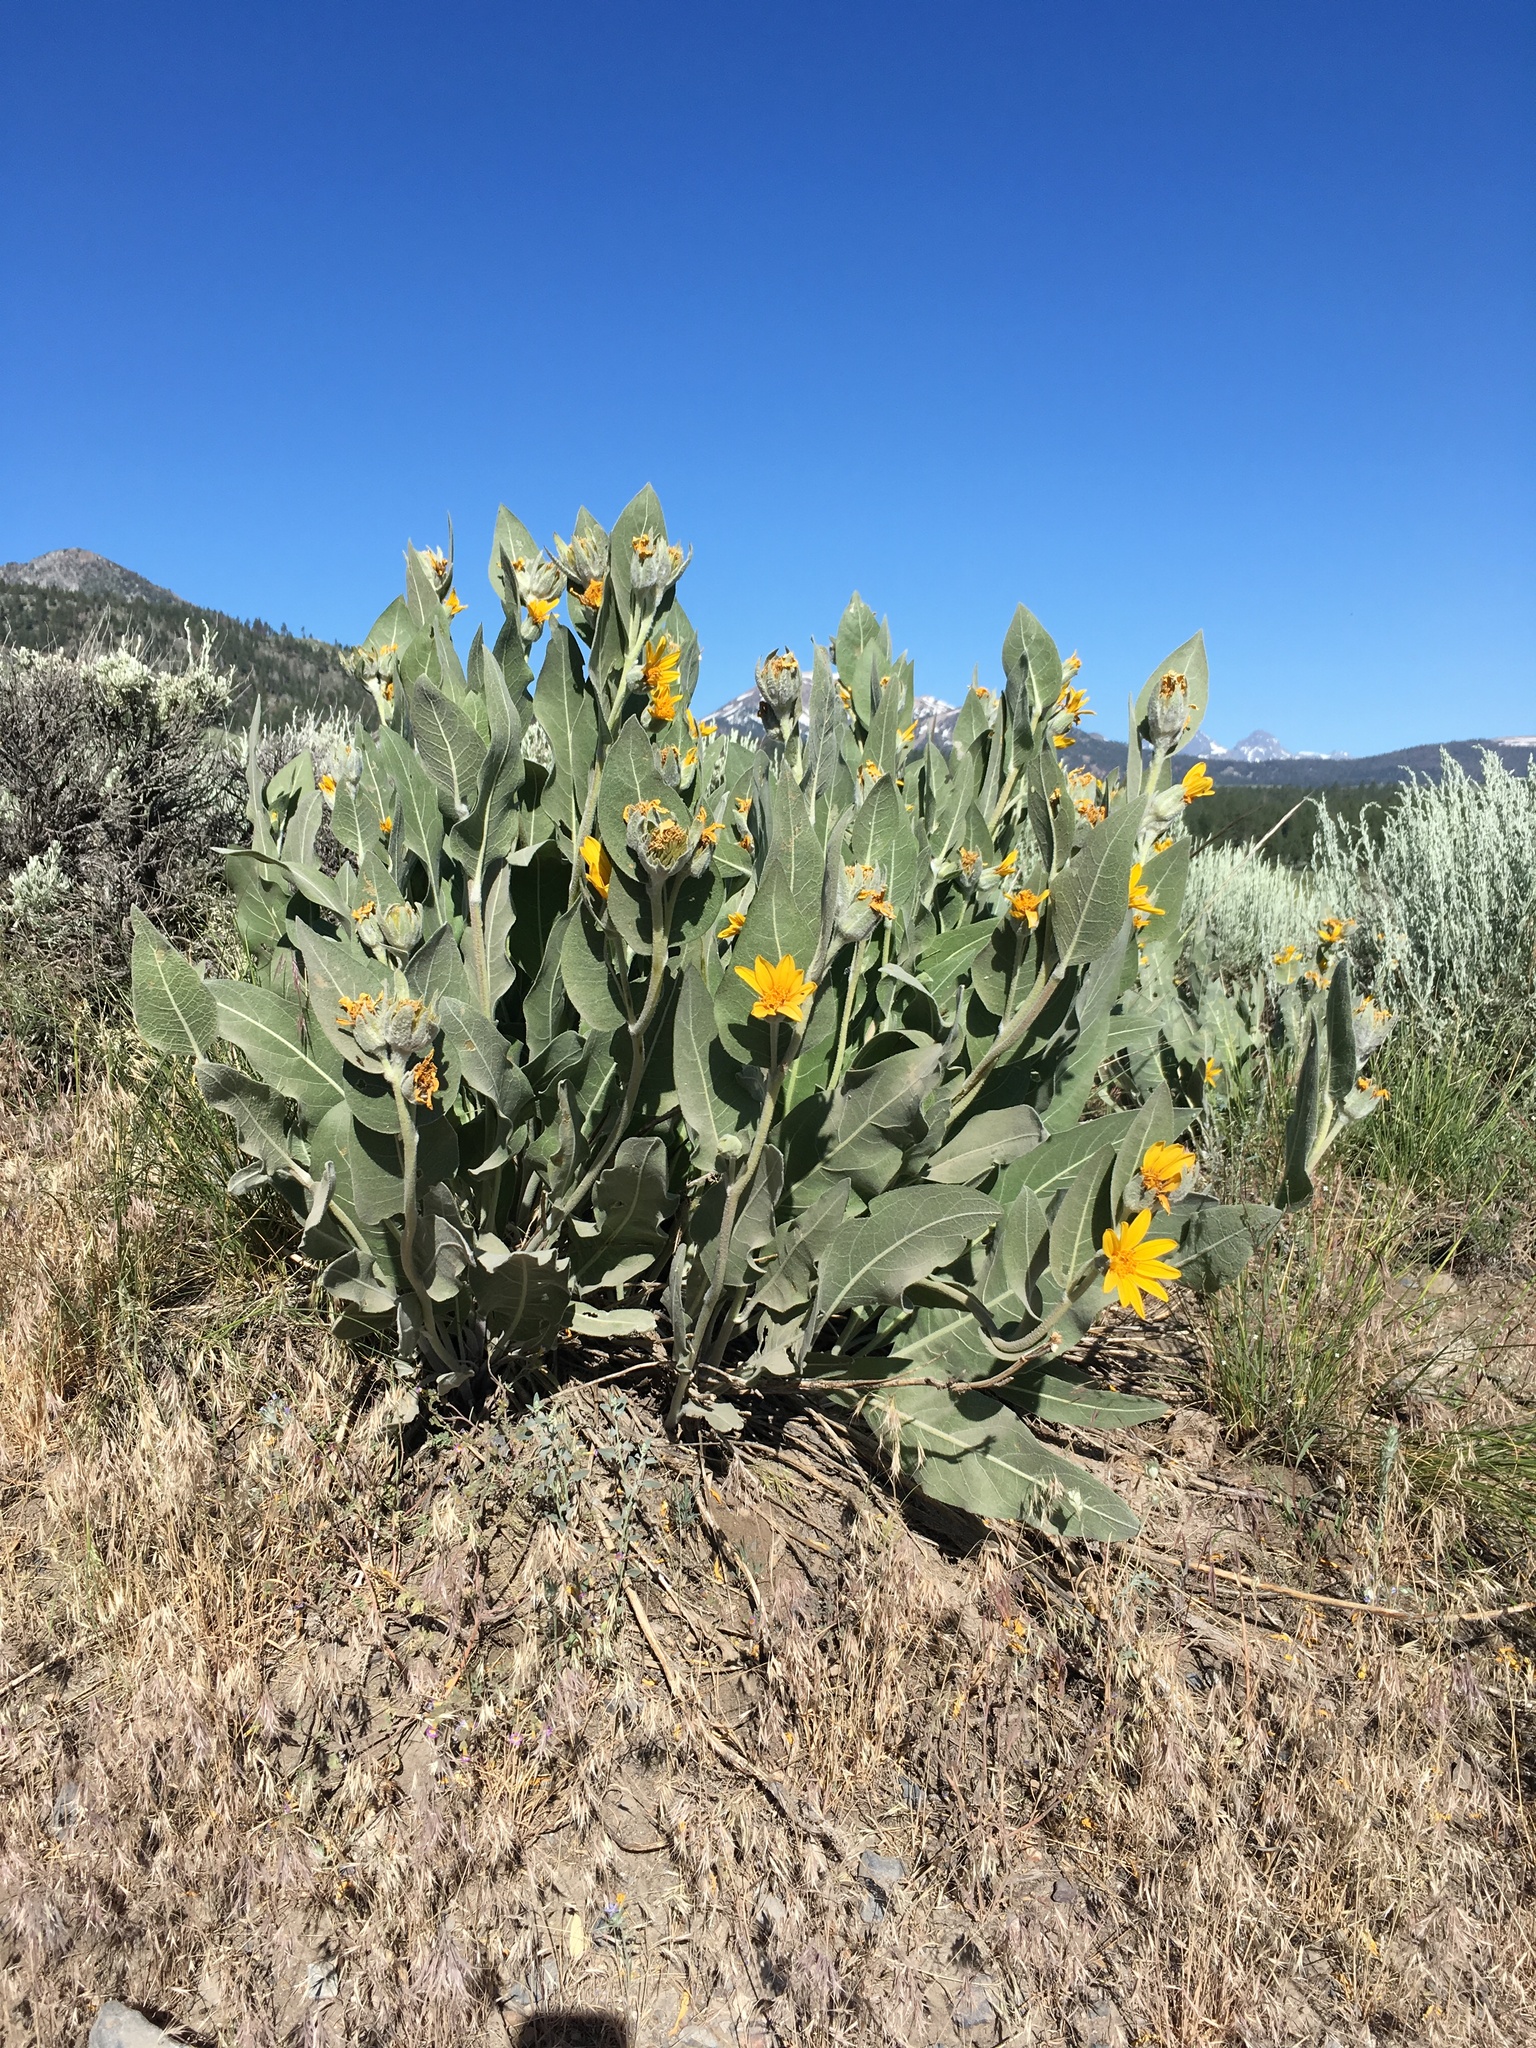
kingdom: Plantae
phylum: Tracheophyta
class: Magnoliopsida
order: Asterales
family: Asteraceae
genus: Wyethia
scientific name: Wyethia mollis
